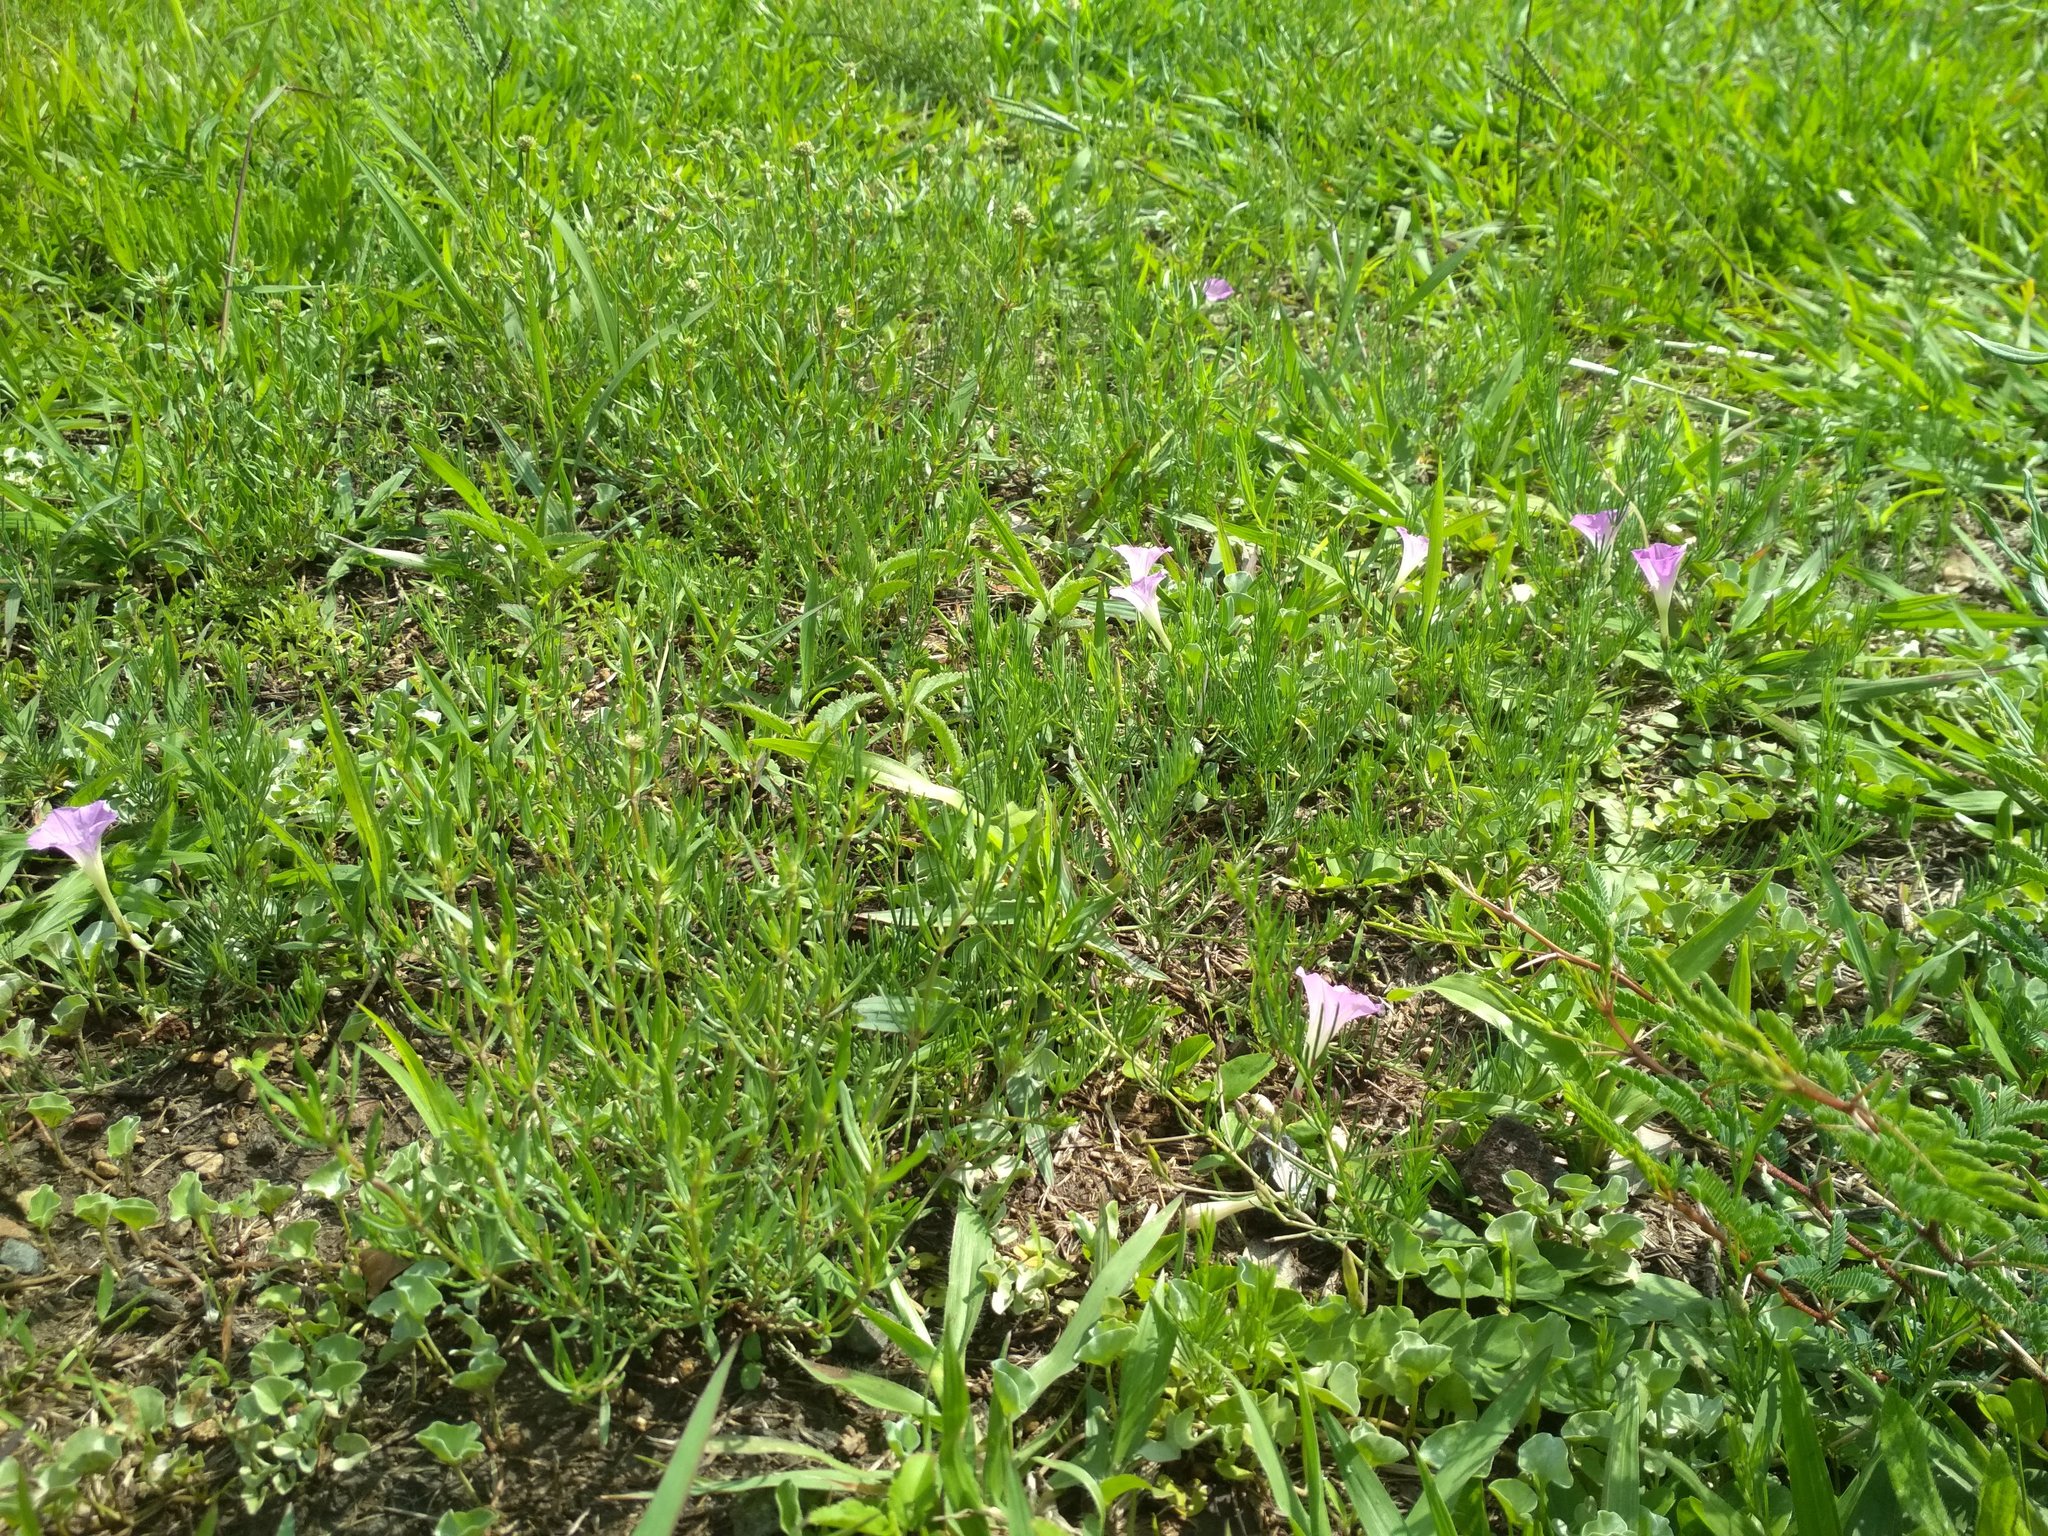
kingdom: Plantae
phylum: Tracheophyta
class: Magnoliopsida
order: Solanales
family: Convolvulaceae
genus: Ipomoea
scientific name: Ipomoea capillacea
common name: Purple morning-glory
